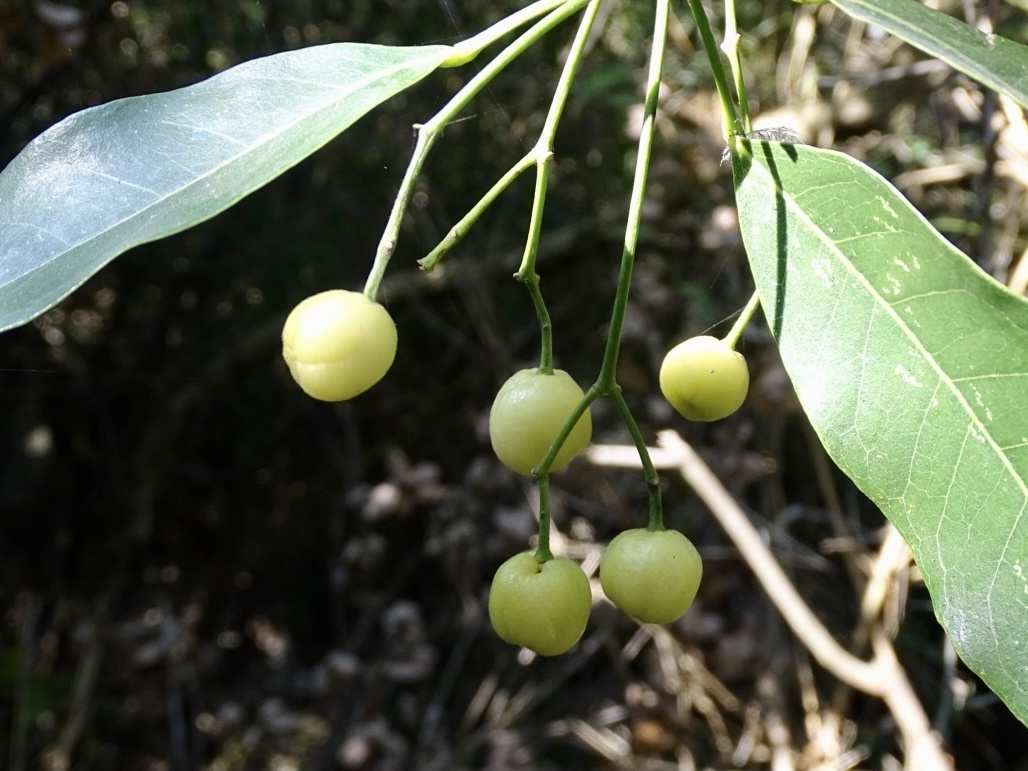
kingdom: Plantae
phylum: Tracheophyta
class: Magnoliopsida
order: Sapindales
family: Rutaceae
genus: Acronychia
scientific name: Acronychia pedunculata
